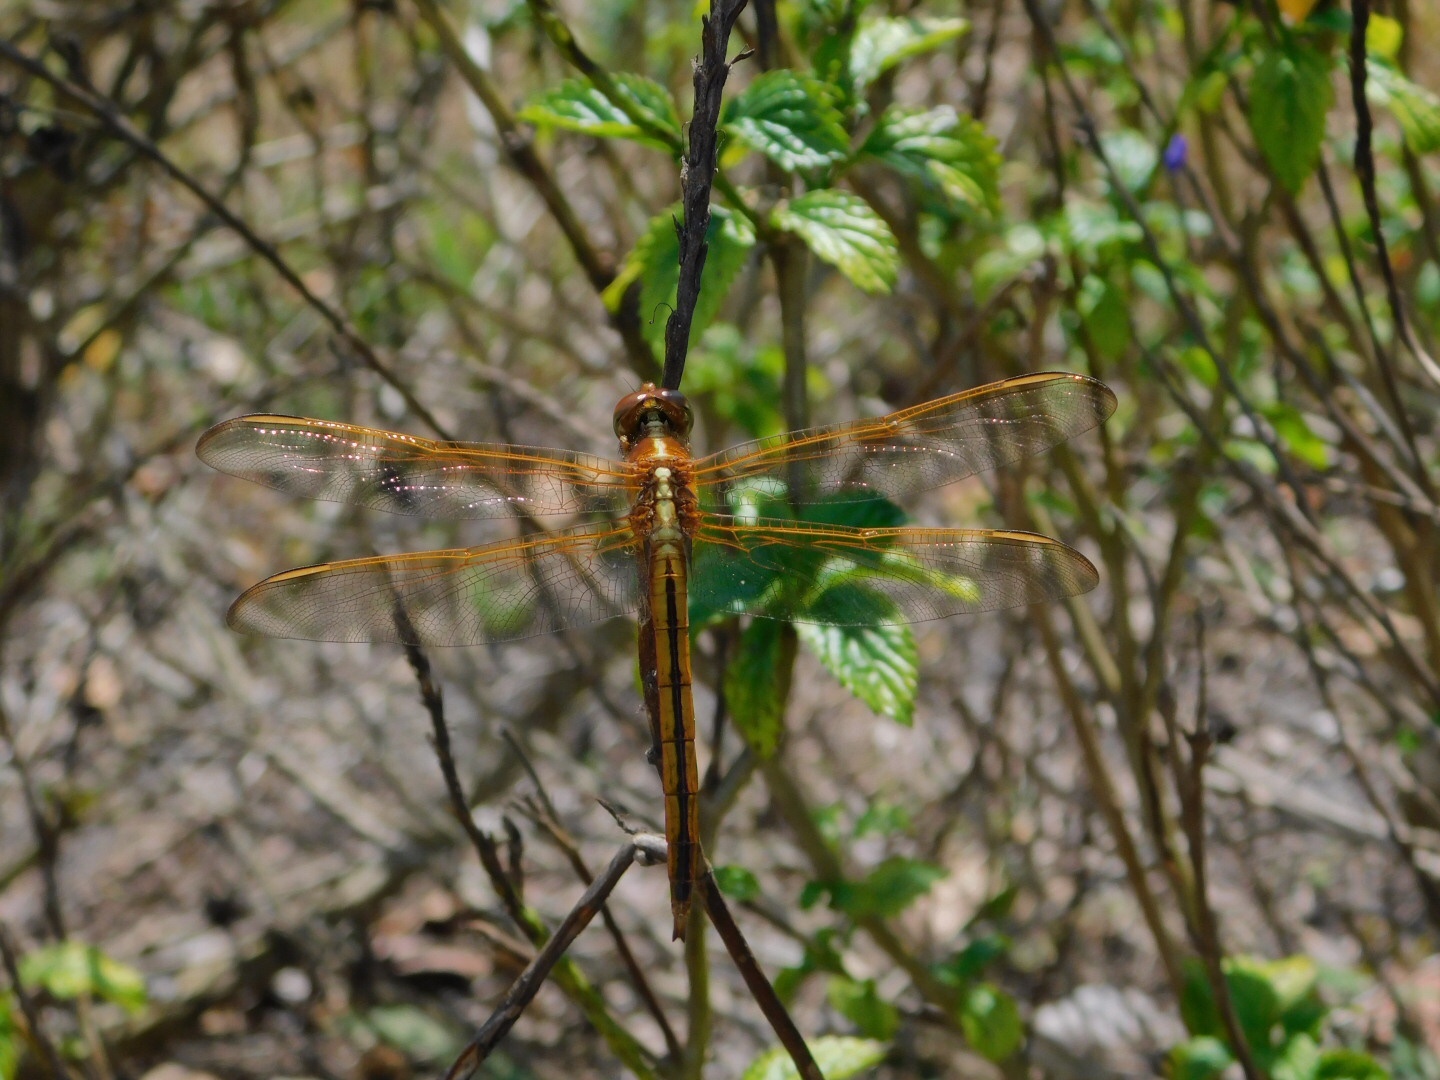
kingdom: Animalia
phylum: Arthropoda
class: Insecta
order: Odonata
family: Libellulidae
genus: Libellula
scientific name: Libellula needhami
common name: Needham's skimmer
